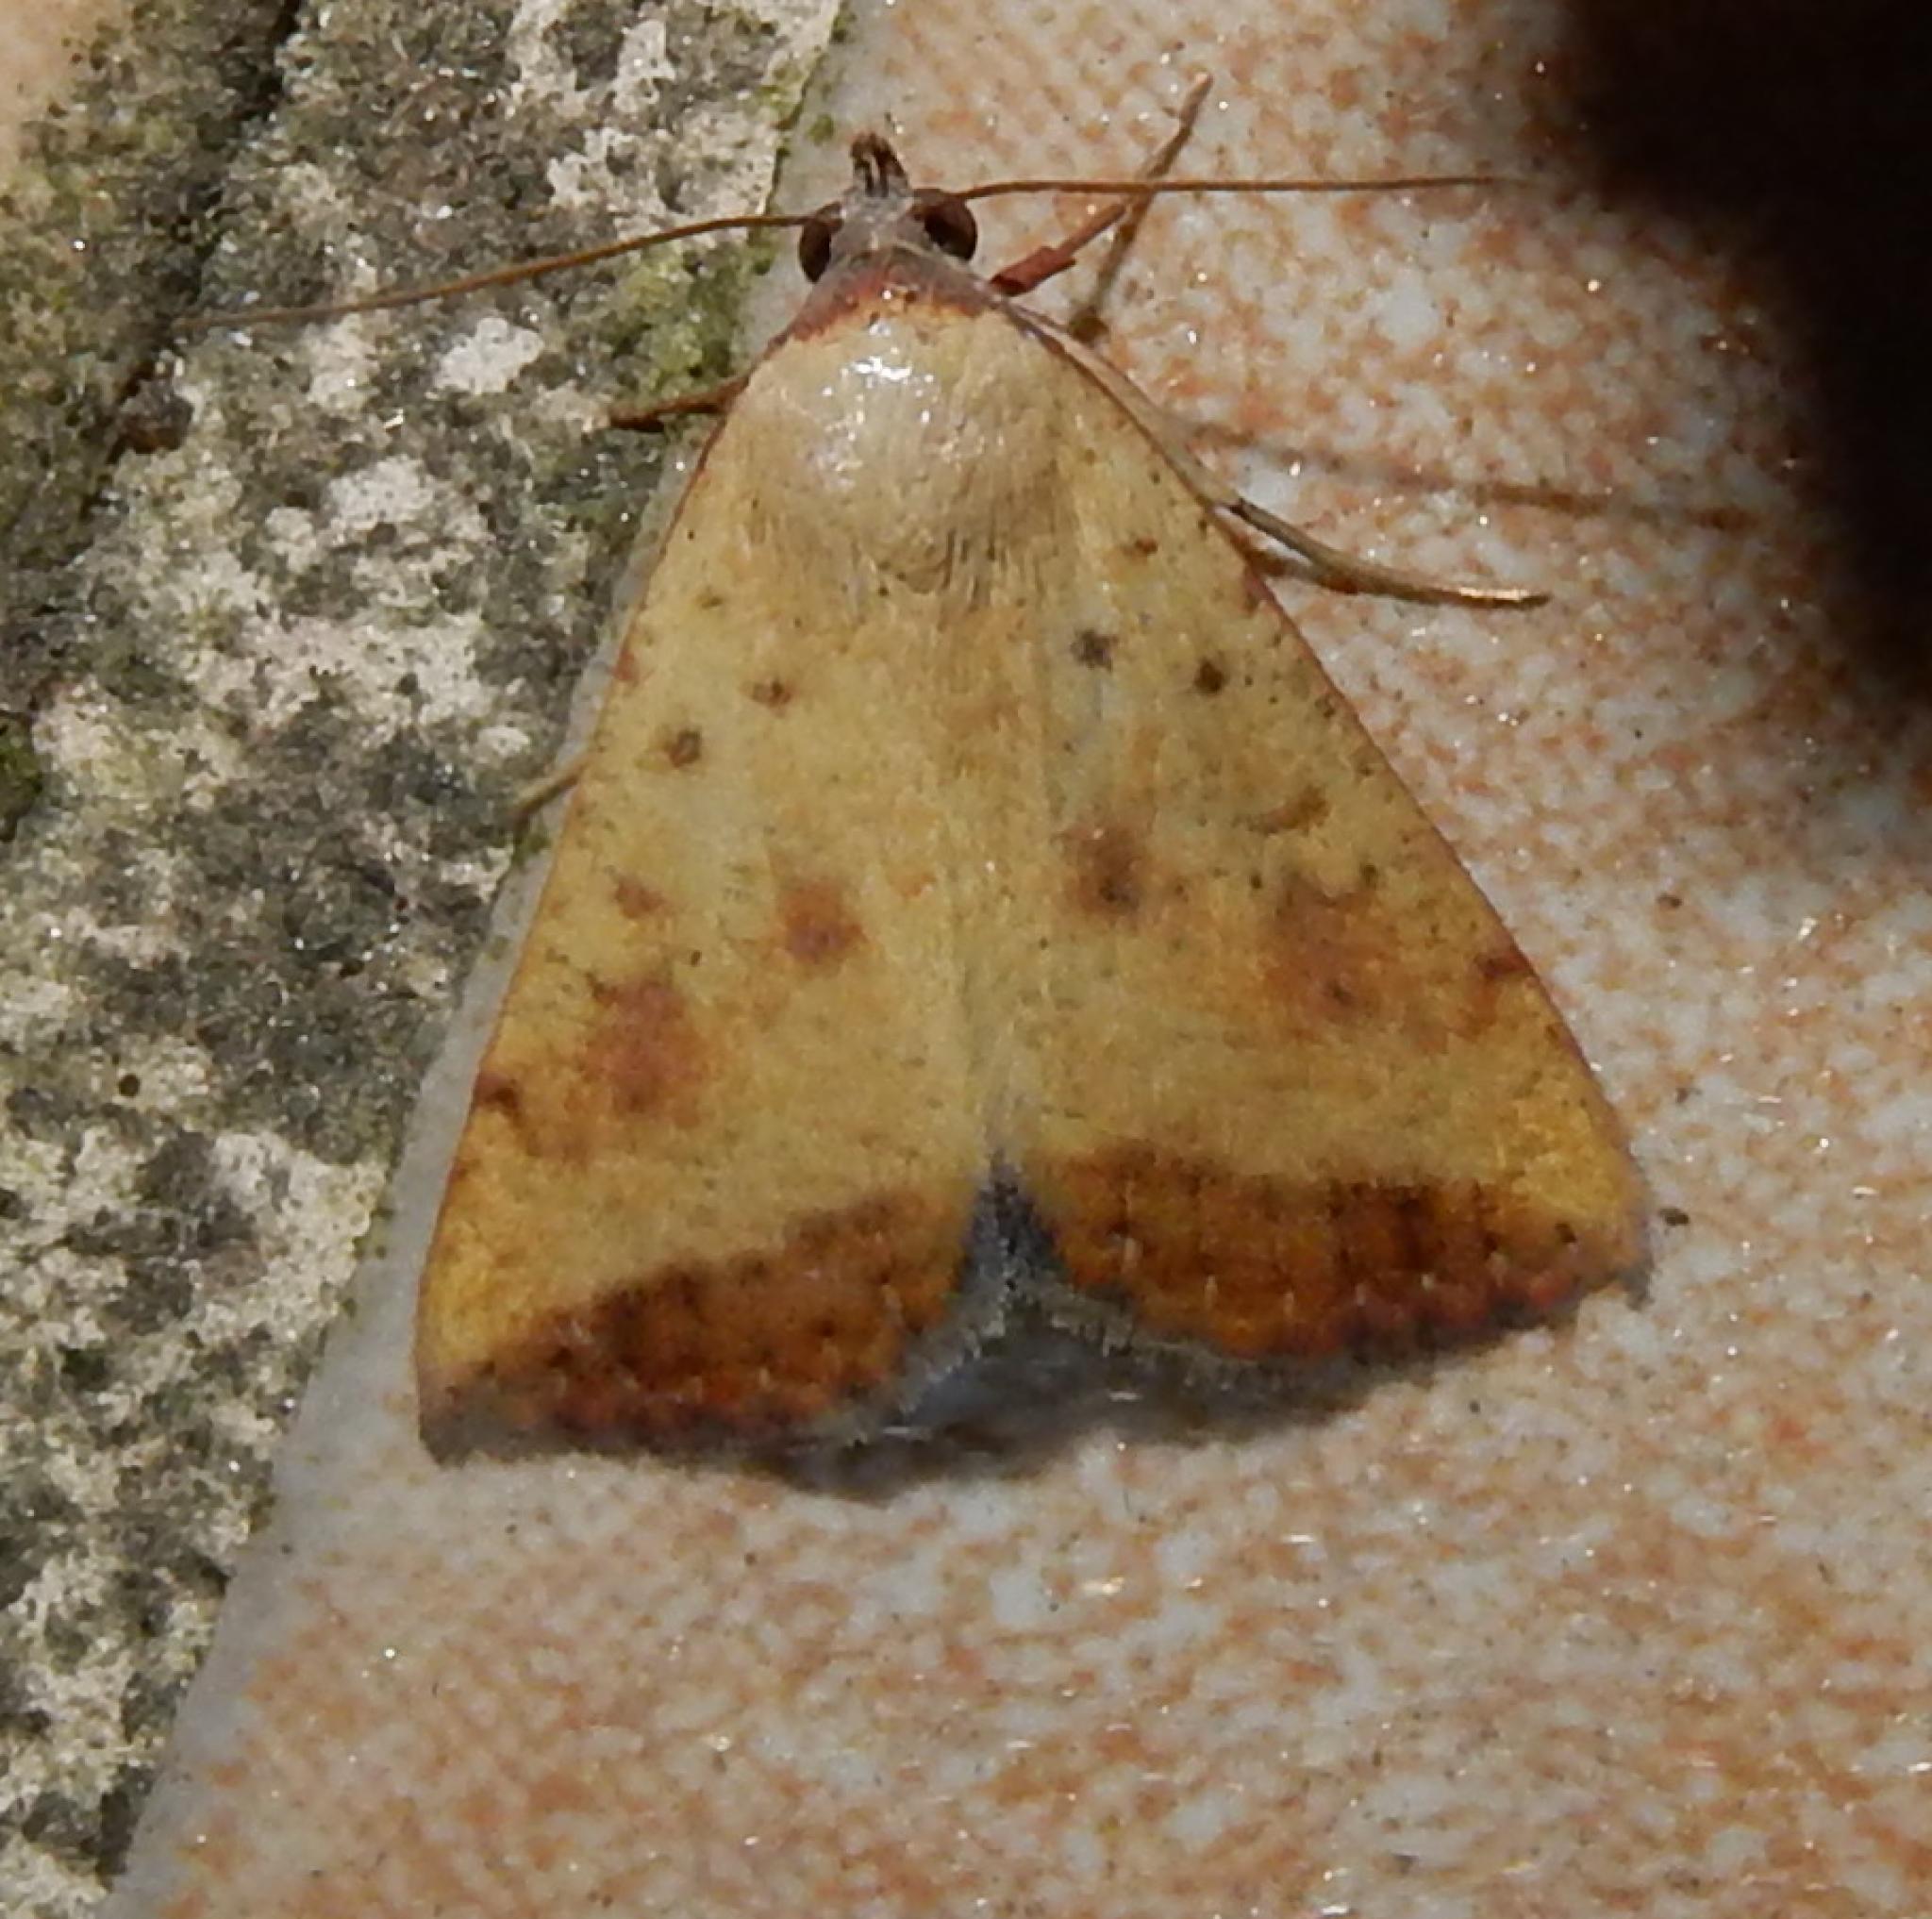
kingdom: Animalia
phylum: Arthropoda
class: Insecta
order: Lepidoptera
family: Erebidae
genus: Phytometra
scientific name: Phytometra fragilis
